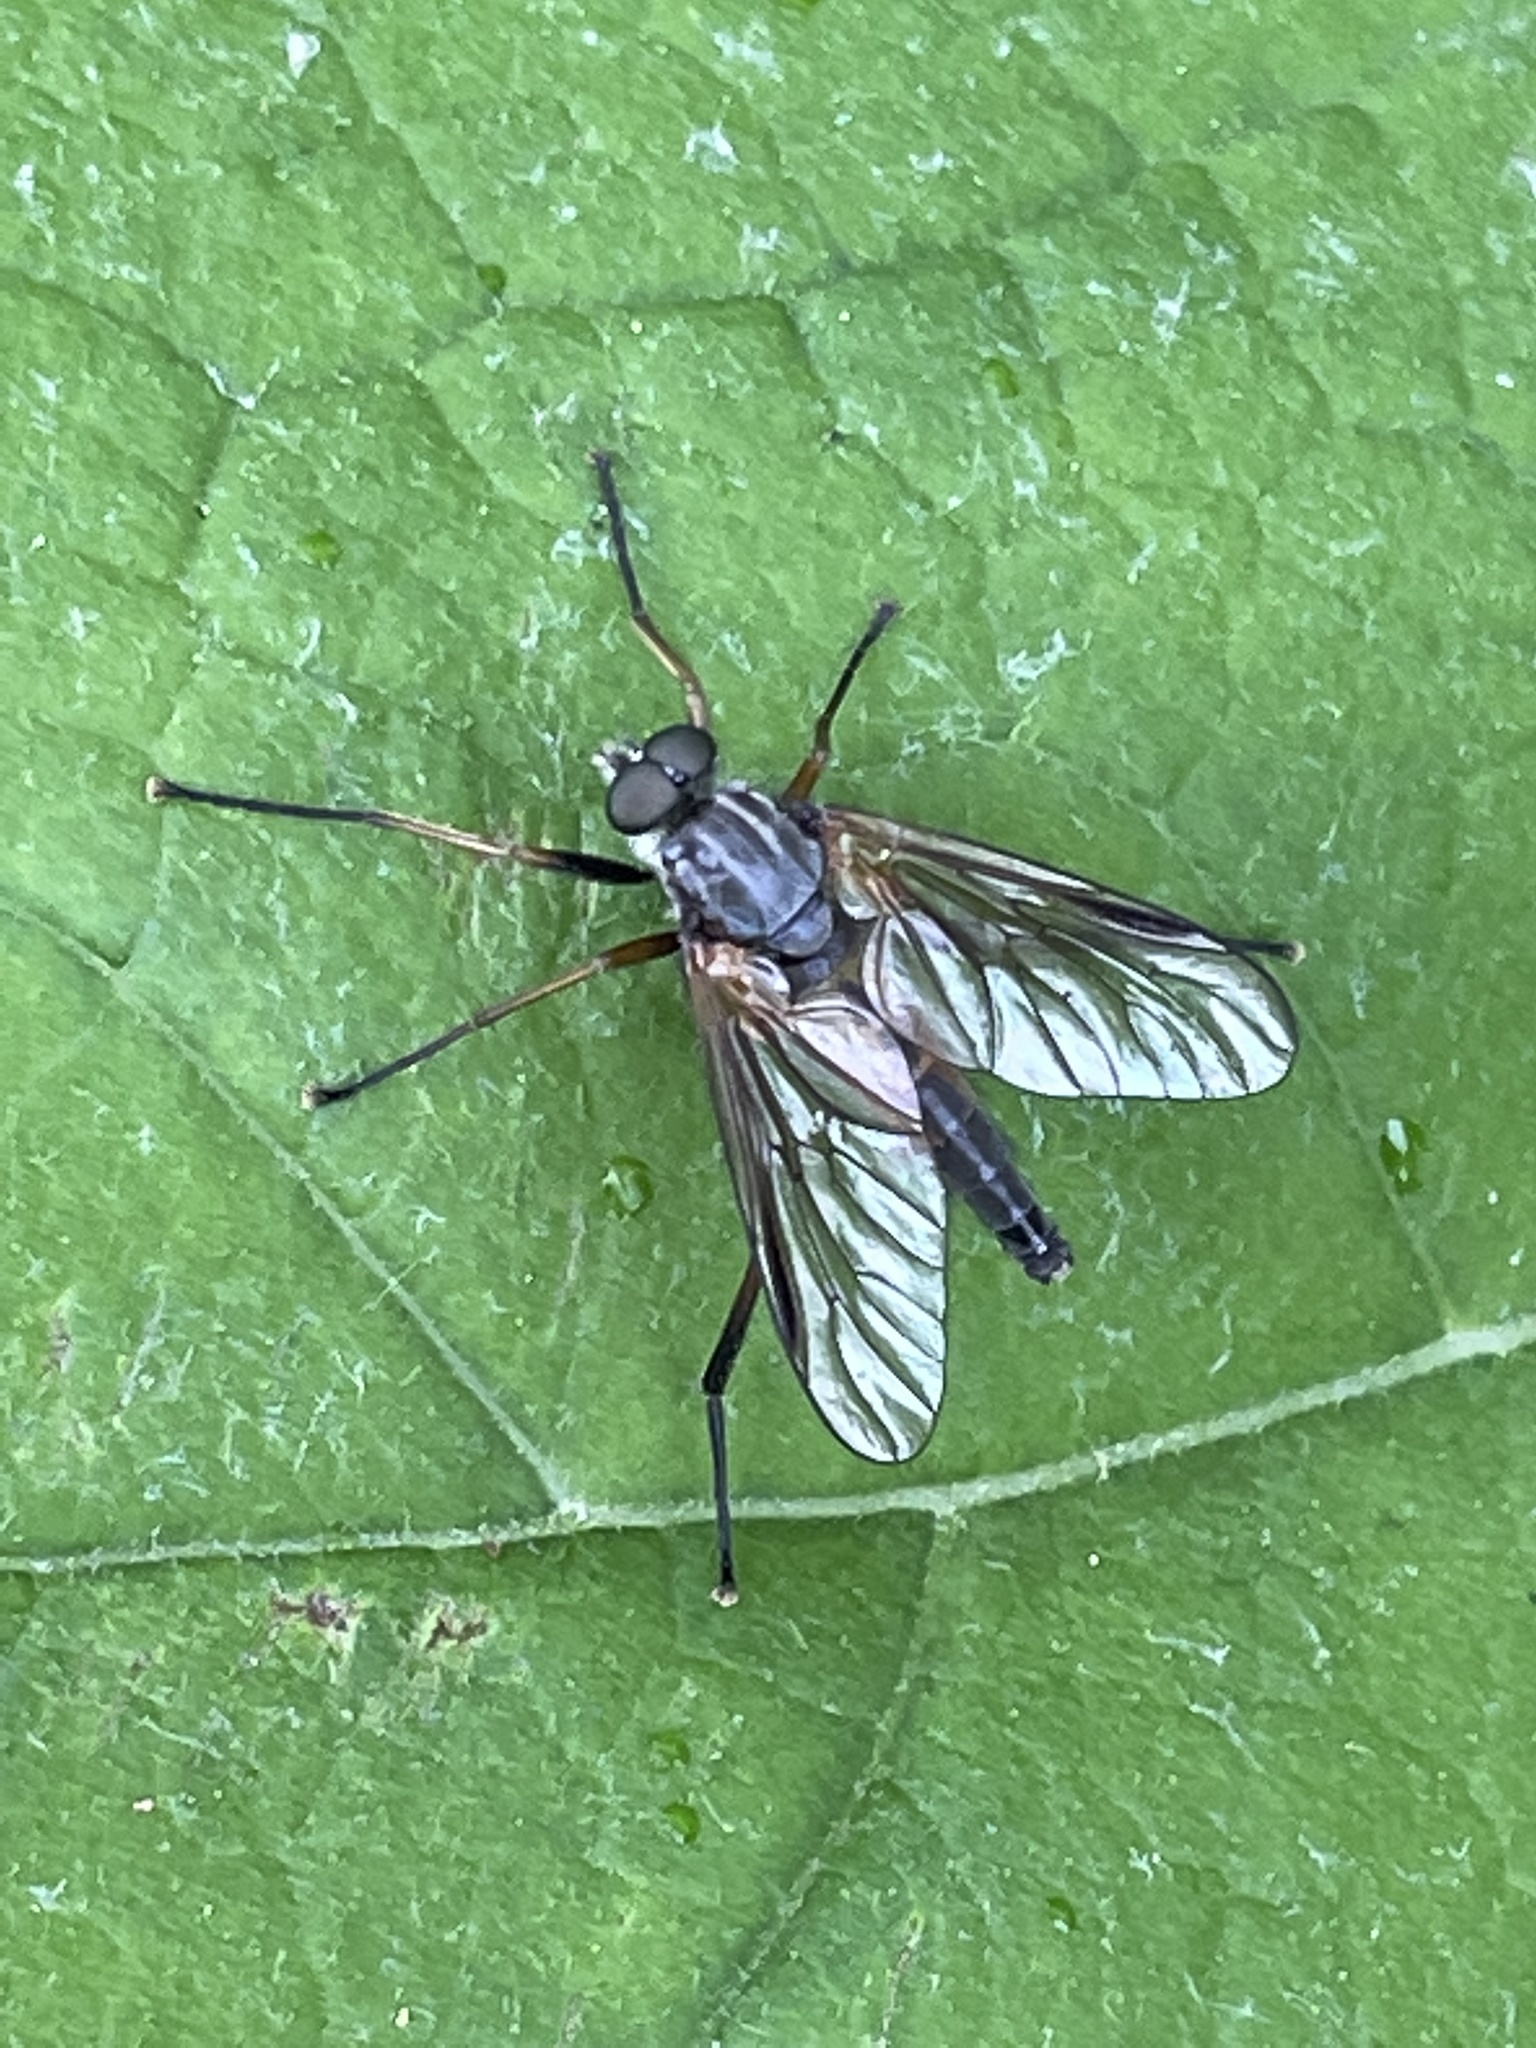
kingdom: Animalia
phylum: Arthropoda
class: Insecta
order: Diptera
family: Rhagionidae
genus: Rhagio
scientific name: Rhagio notatus
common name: Large fleck-winged snipefly
